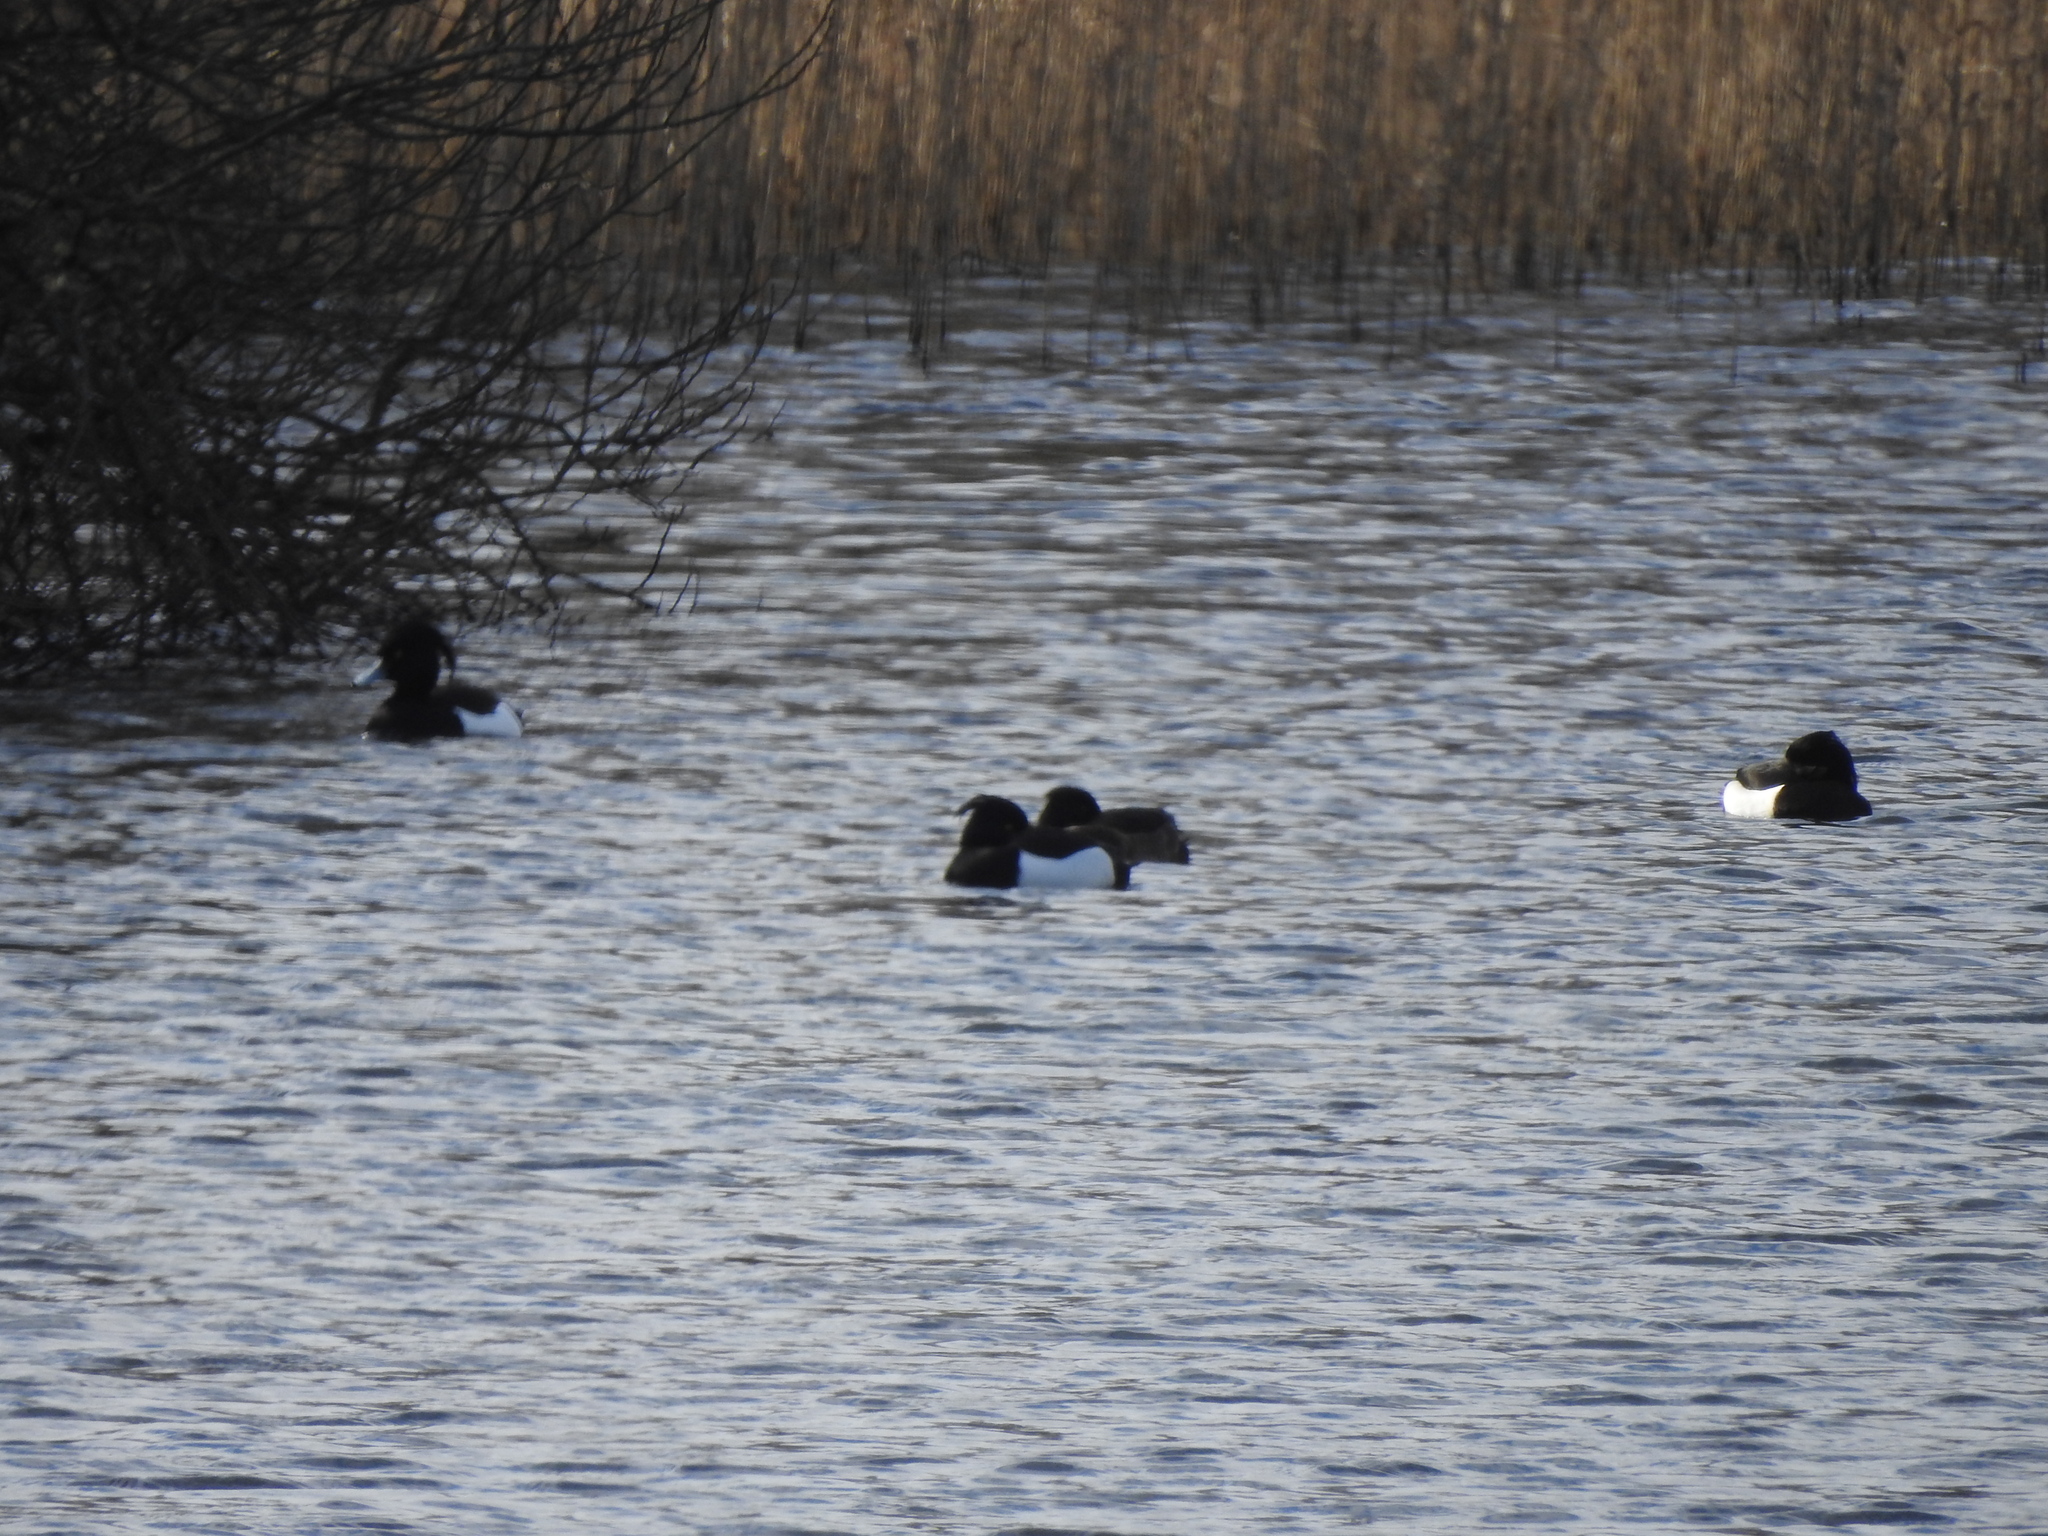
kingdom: Animalia
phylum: Chordata
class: Aves
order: Anseriformes
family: Anatidae
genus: Aythya
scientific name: Aythya fuligula
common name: Tufted duck
